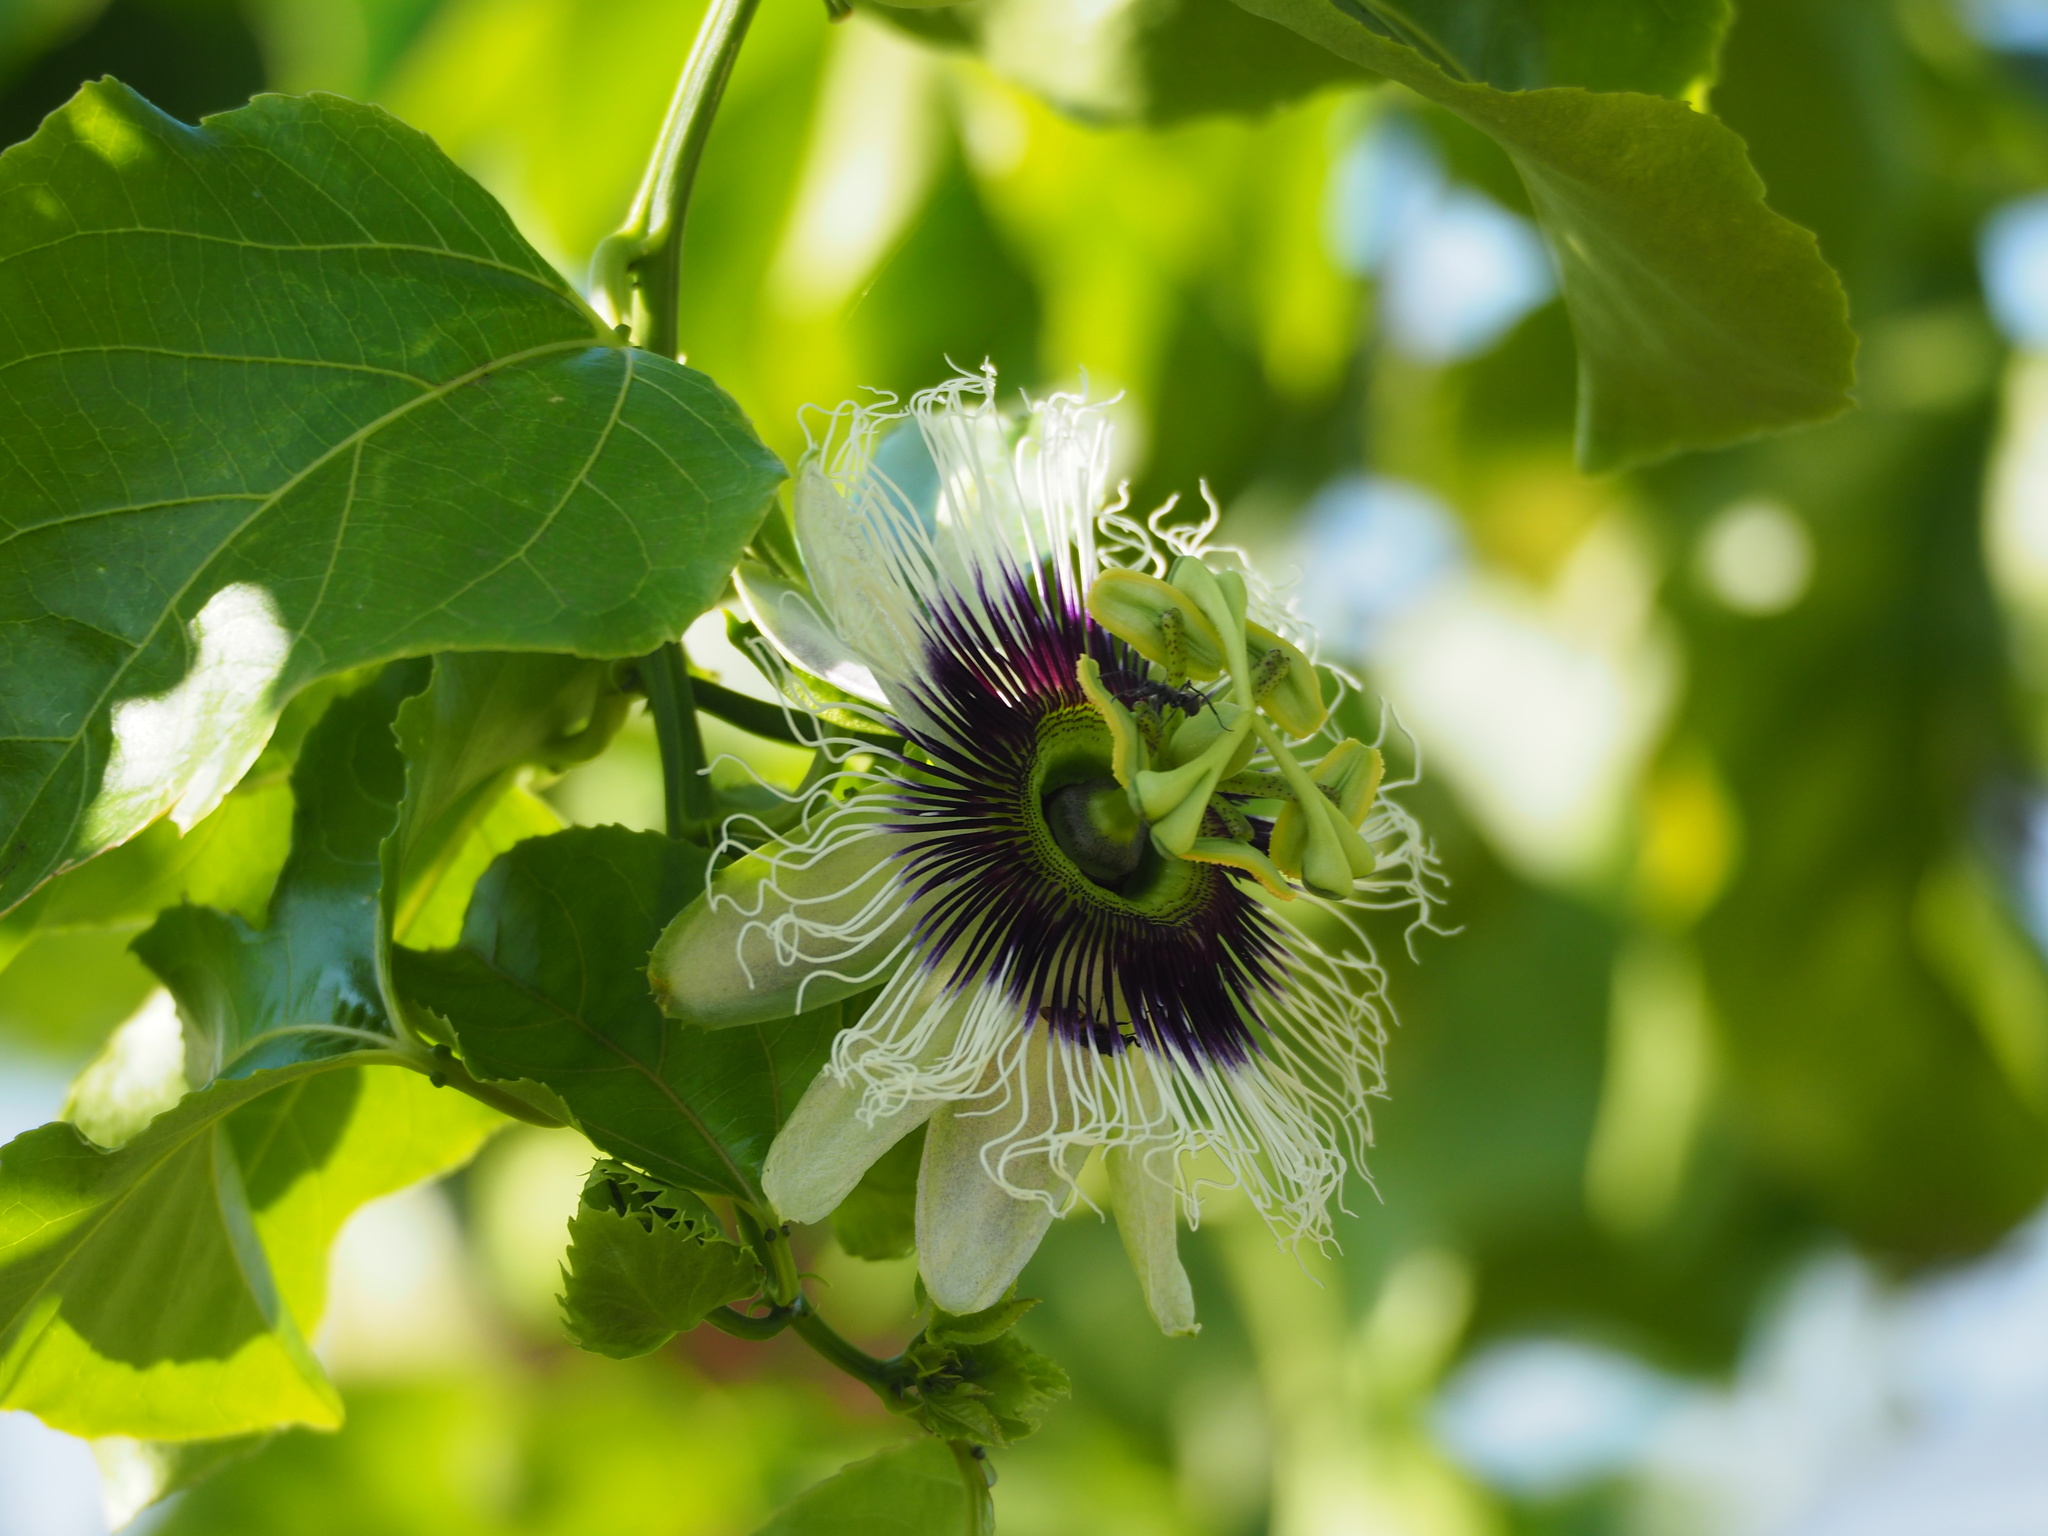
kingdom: Plantae
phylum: Tracheophyta
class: Magnoliopsida
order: Malpighiales
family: Passifloraceae
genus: Passiflora
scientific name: Passiflora edulis
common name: Purple granadilla
